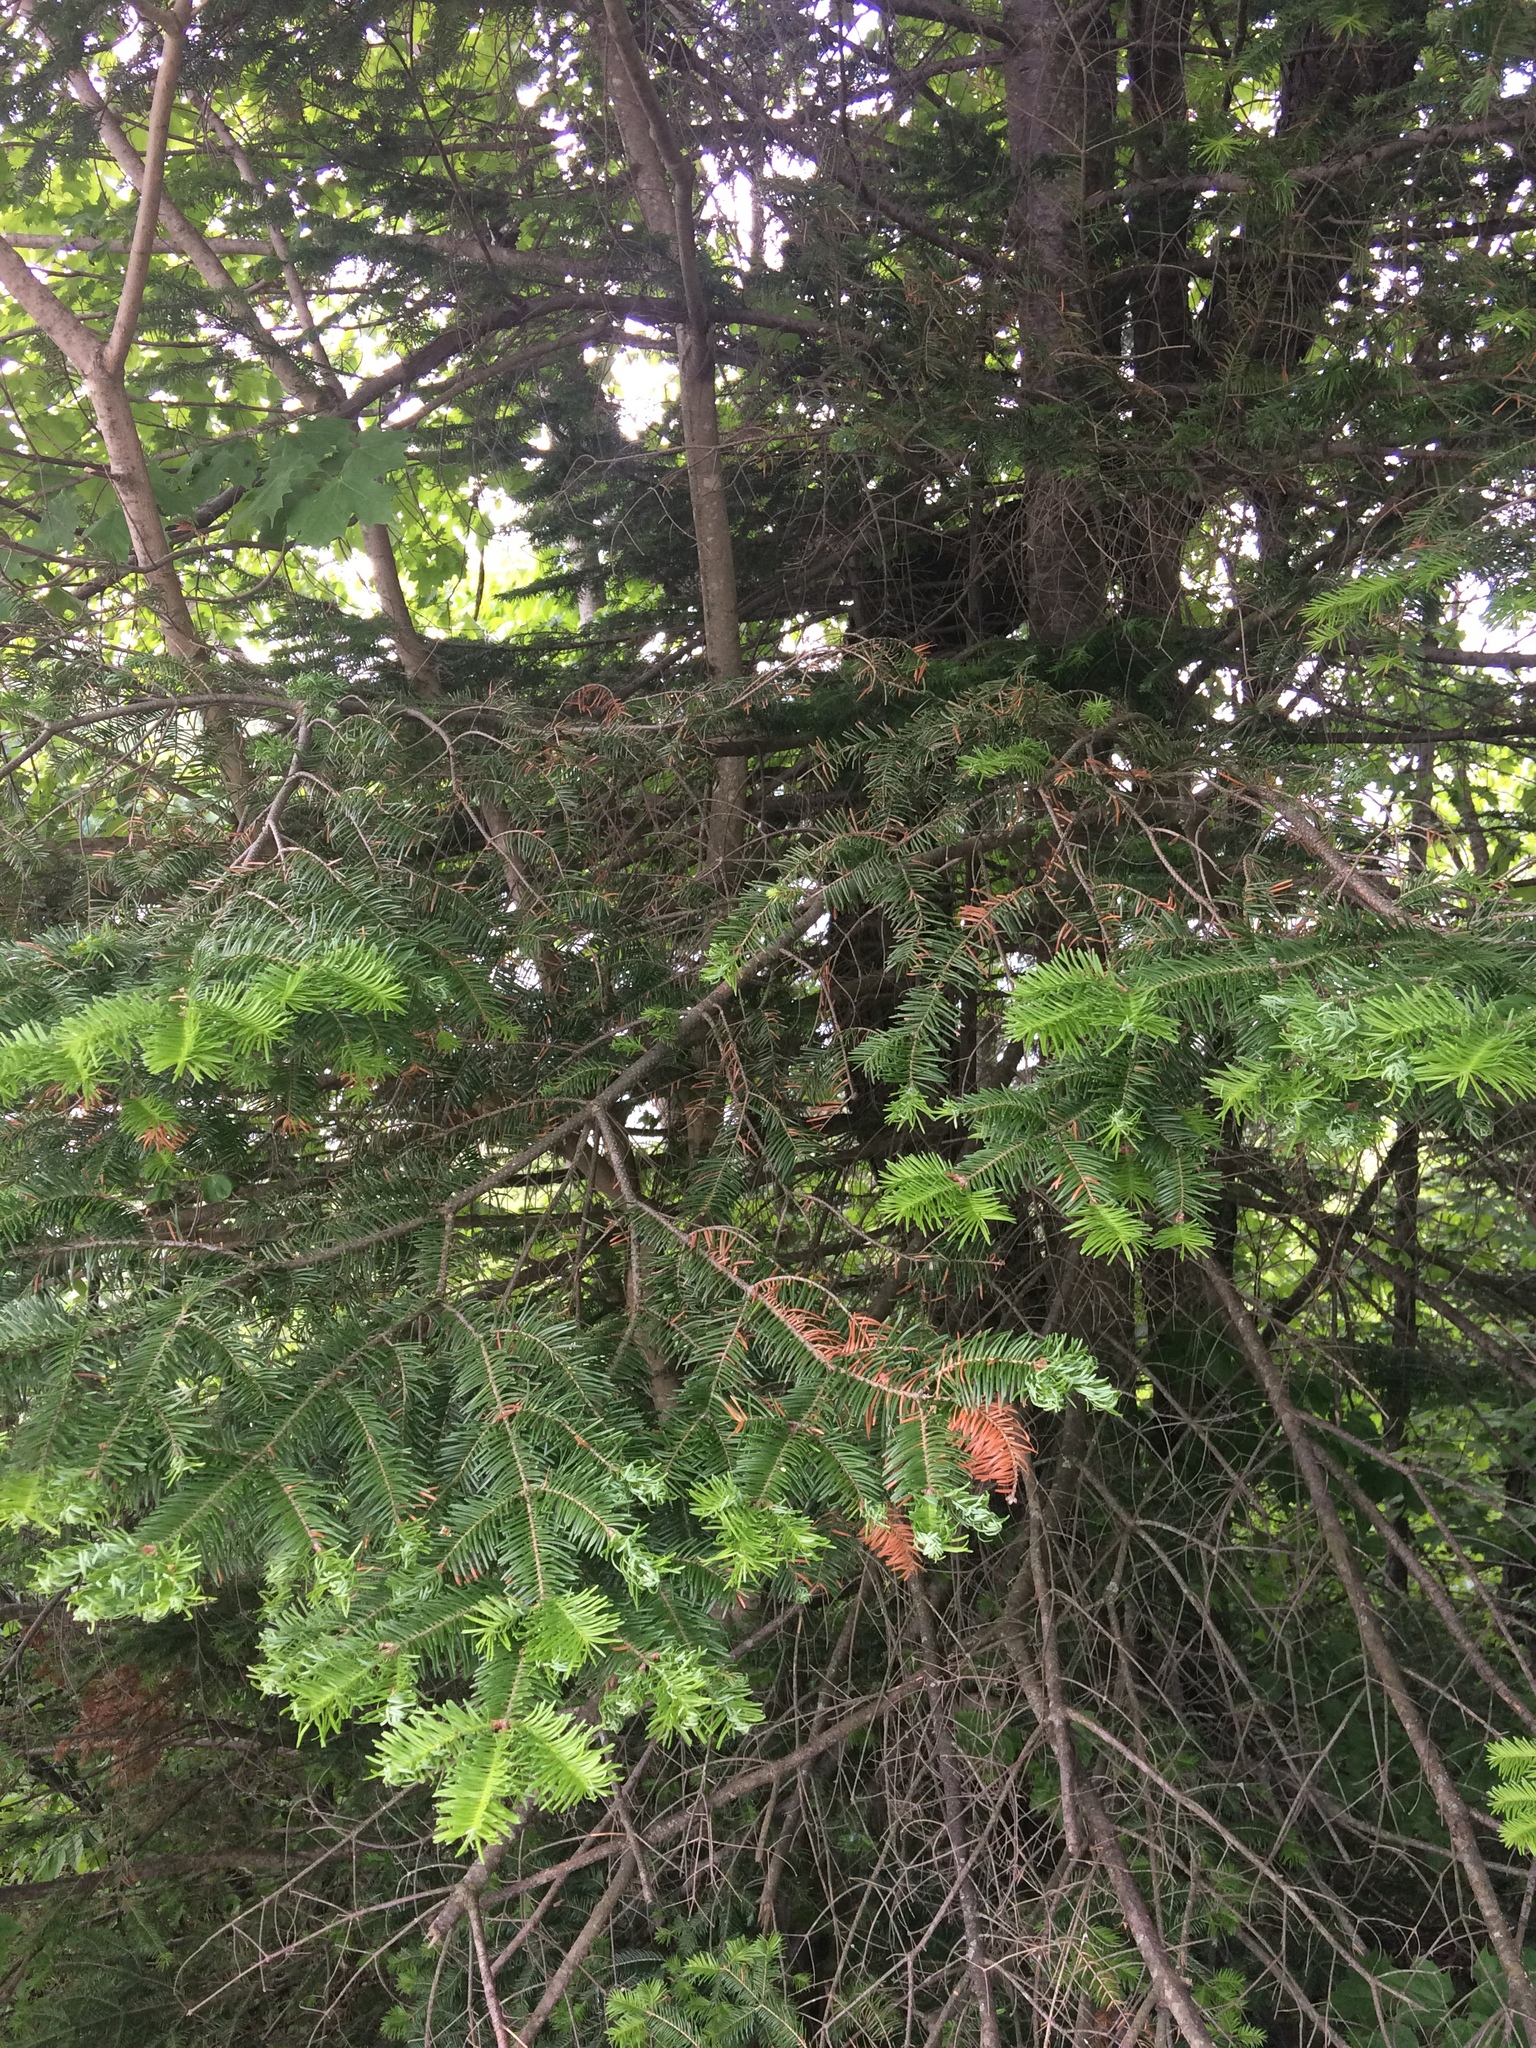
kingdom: Plantae
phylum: Tracheophyta
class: Pinopsida
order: Pinales
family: Pinaceae
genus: Abies
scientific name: Abies balsamea
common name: Balsam fir
